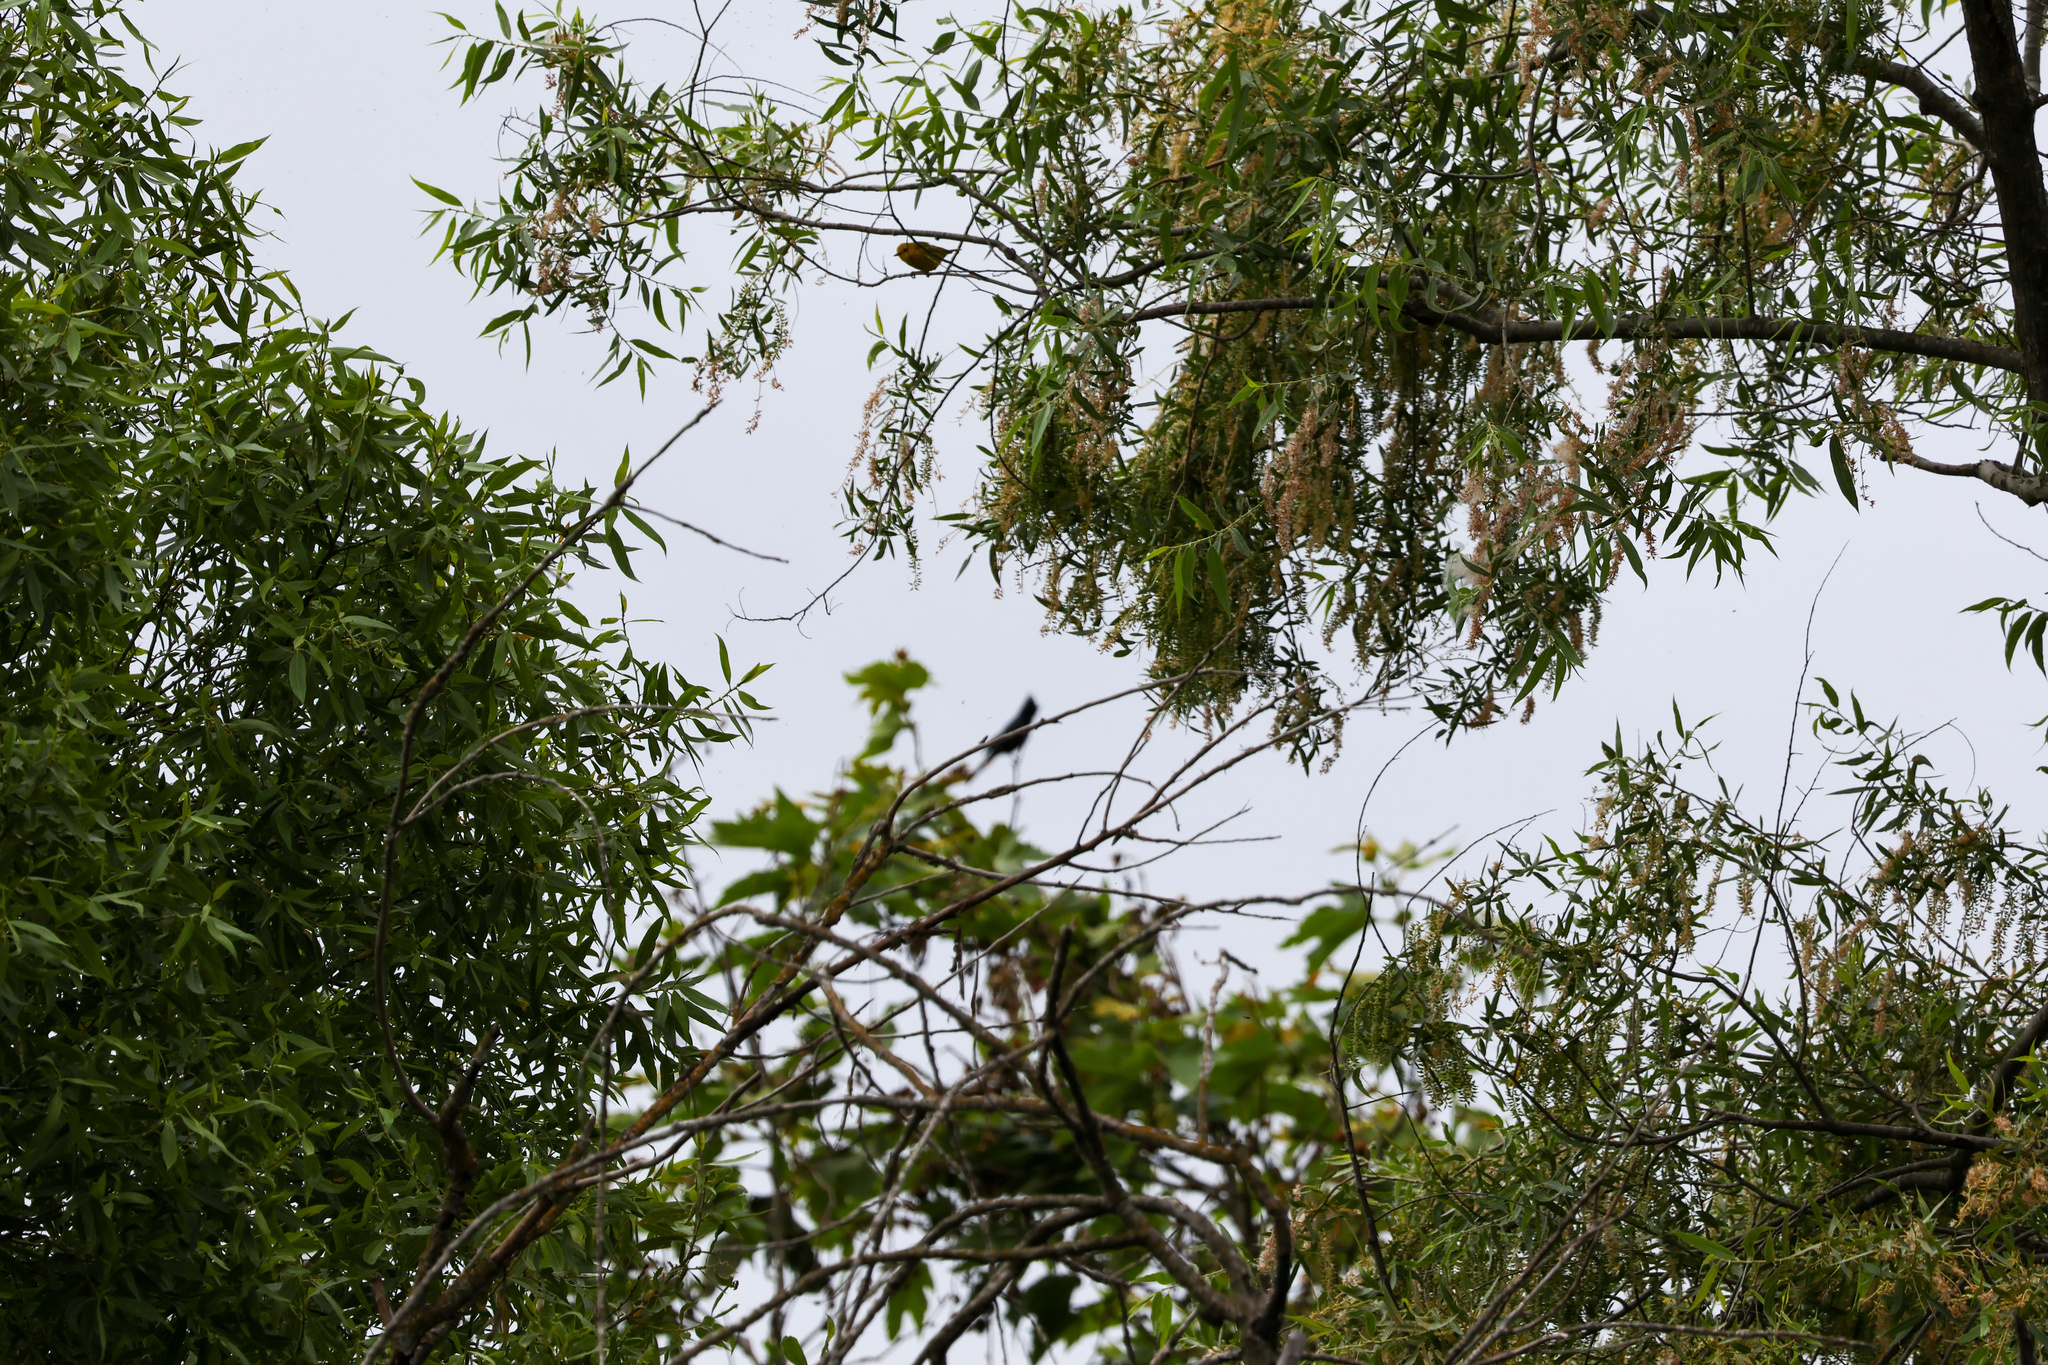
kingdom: Animalia
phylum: Chordata
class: Aves
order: Passeriformes
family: Parulidae
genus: Setophaga
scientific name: Setophaga petechia
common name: Yellow warbler
